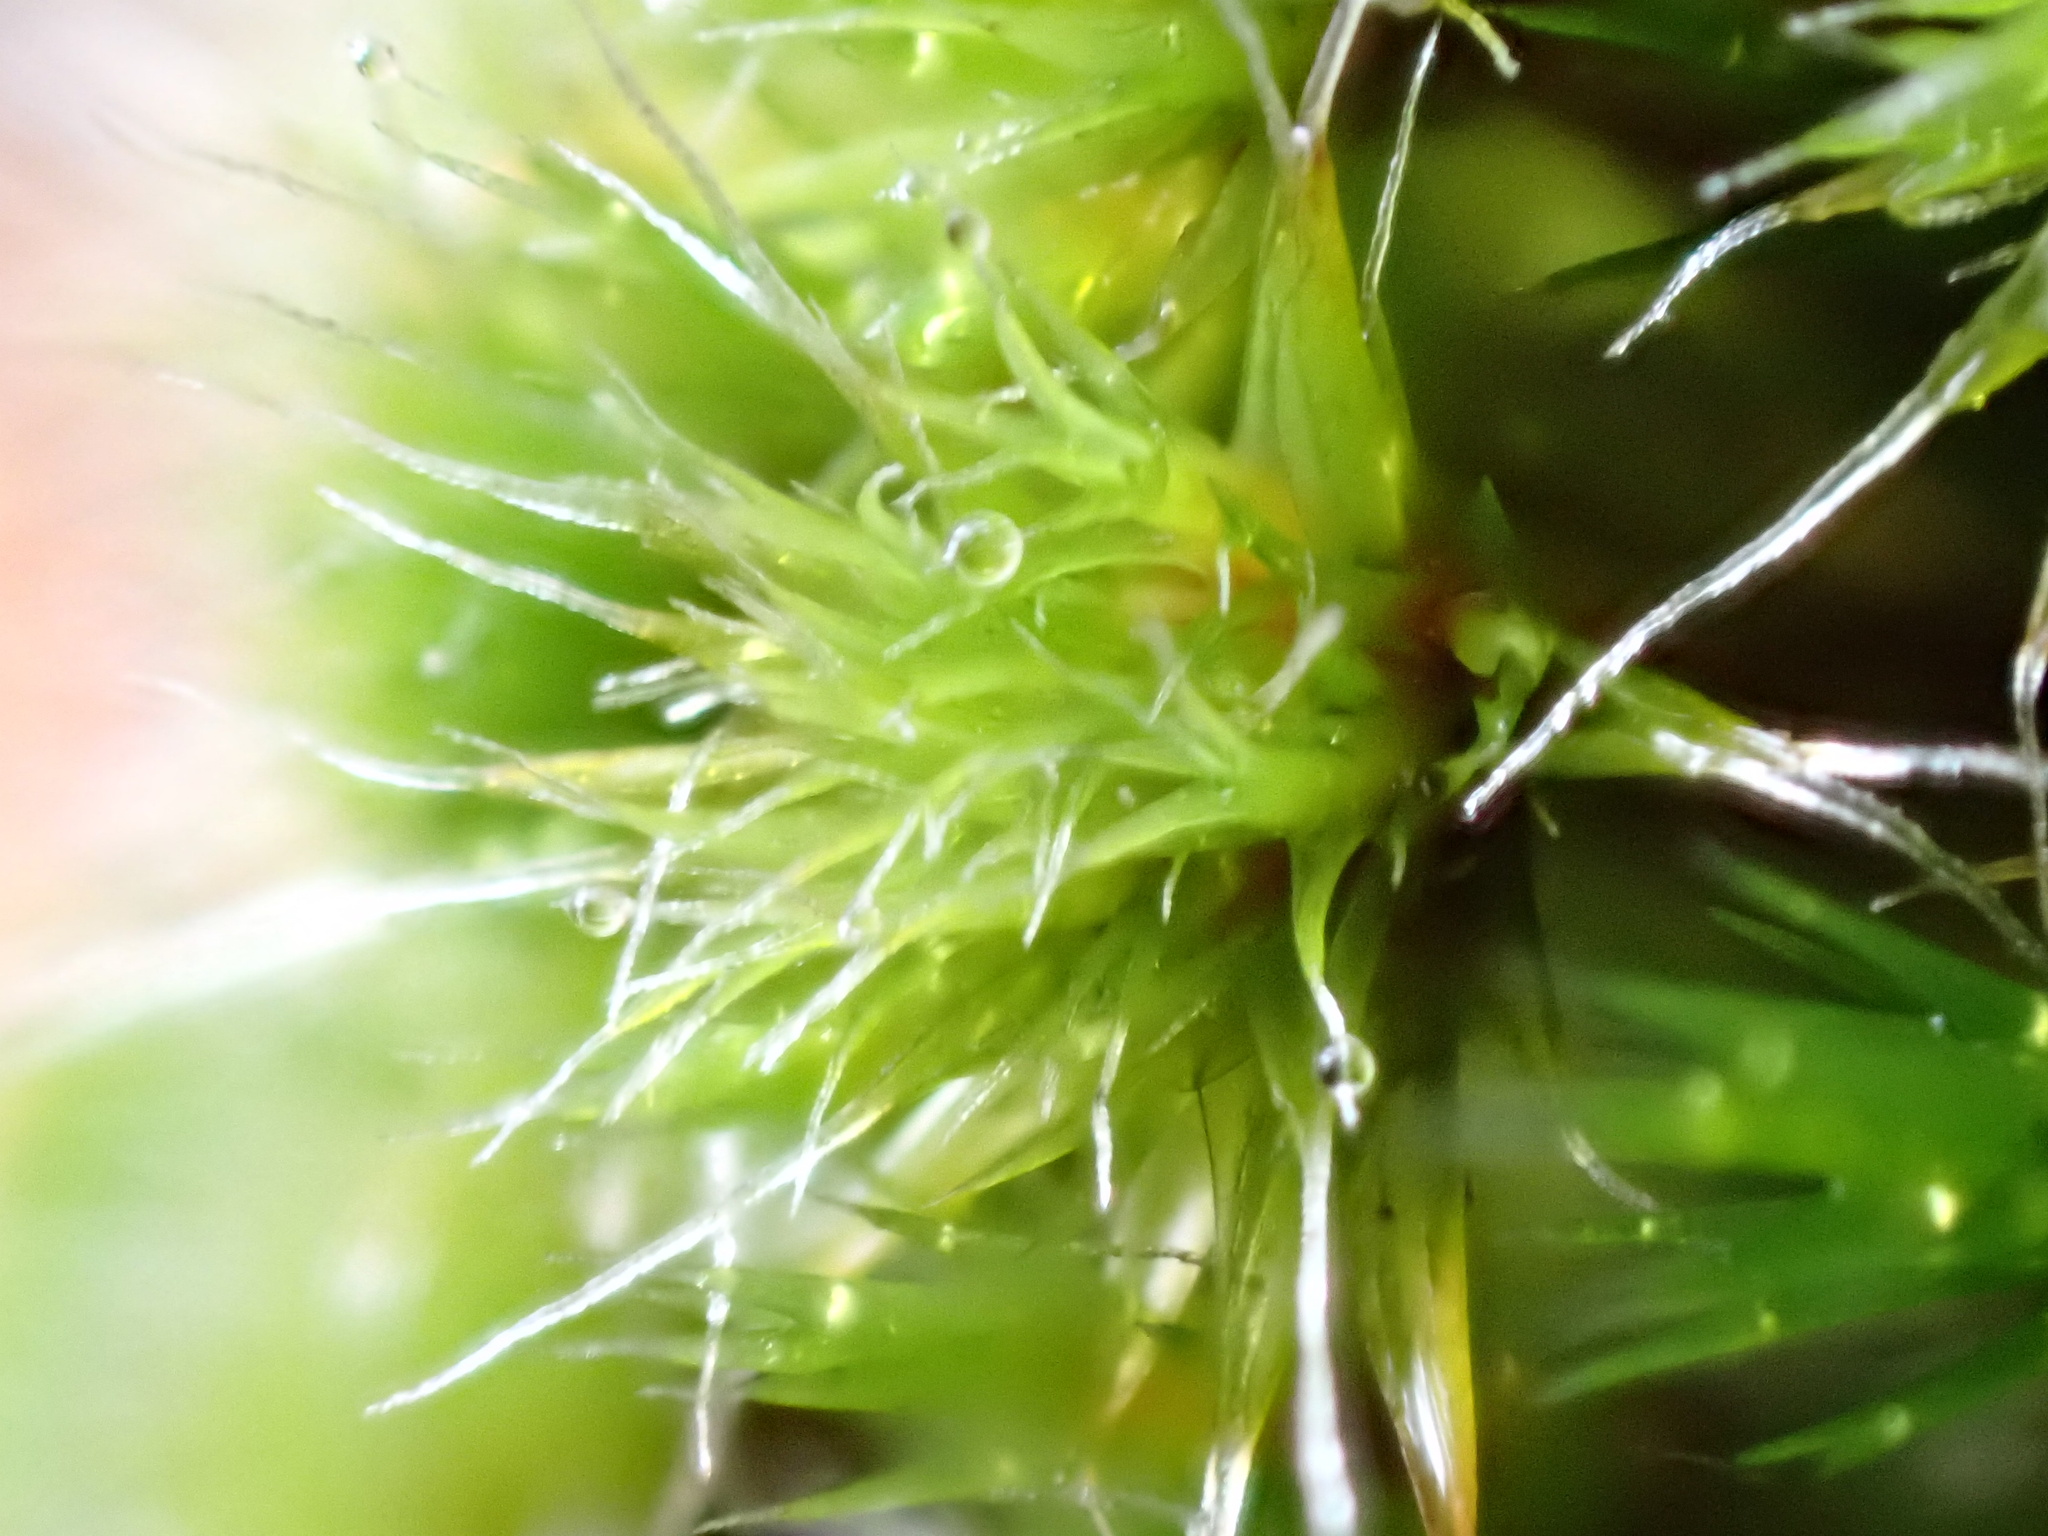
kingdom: Plantae
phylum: Bryophyta
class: Bryopsida
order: Dicranales
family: Leucobryaceae
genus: Campylopus
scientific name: Campylopus introflexus
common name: Heath star moss
